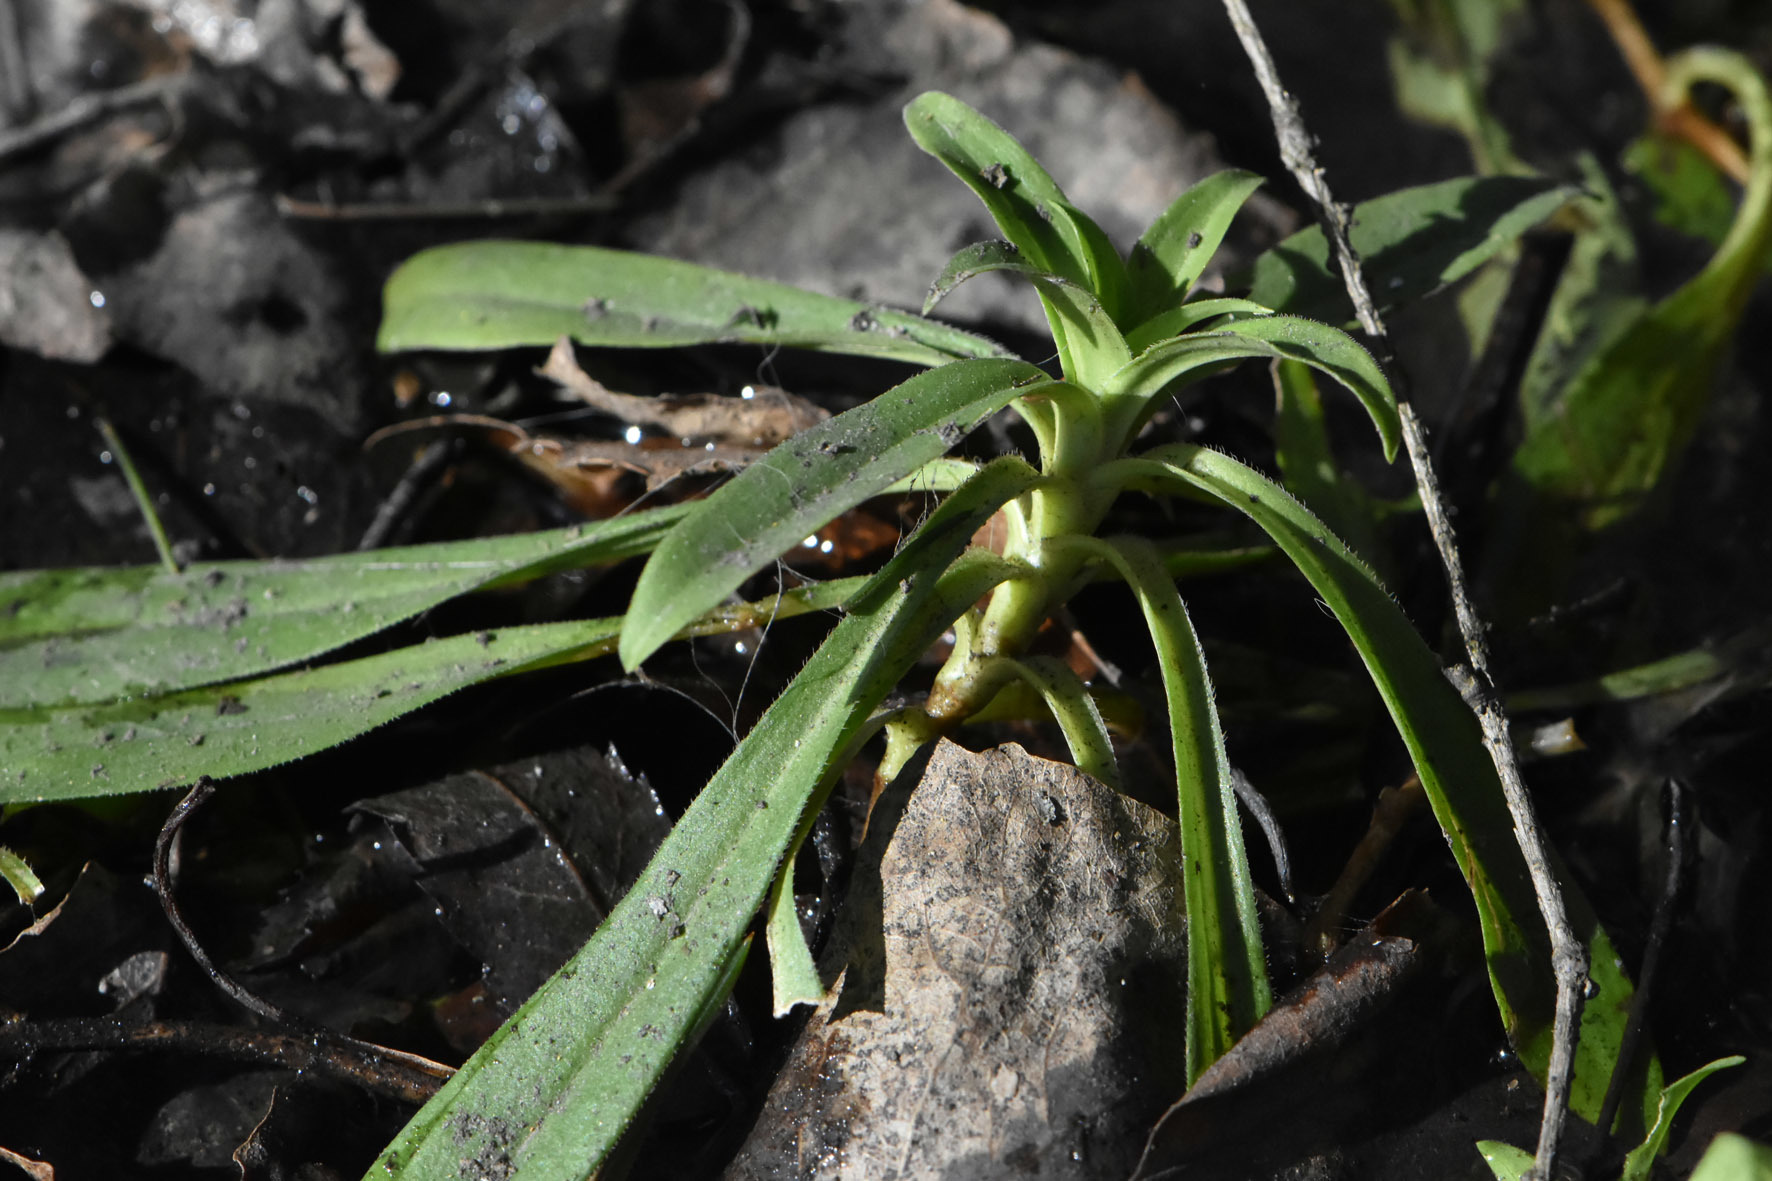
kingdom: Plantae
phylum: Tracheophyta
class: Magnoliopsida
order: Caryophyllales
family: Caryophyllaceae
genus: Dianthus
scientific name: Dianthus barbatus
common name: Sweet-william
